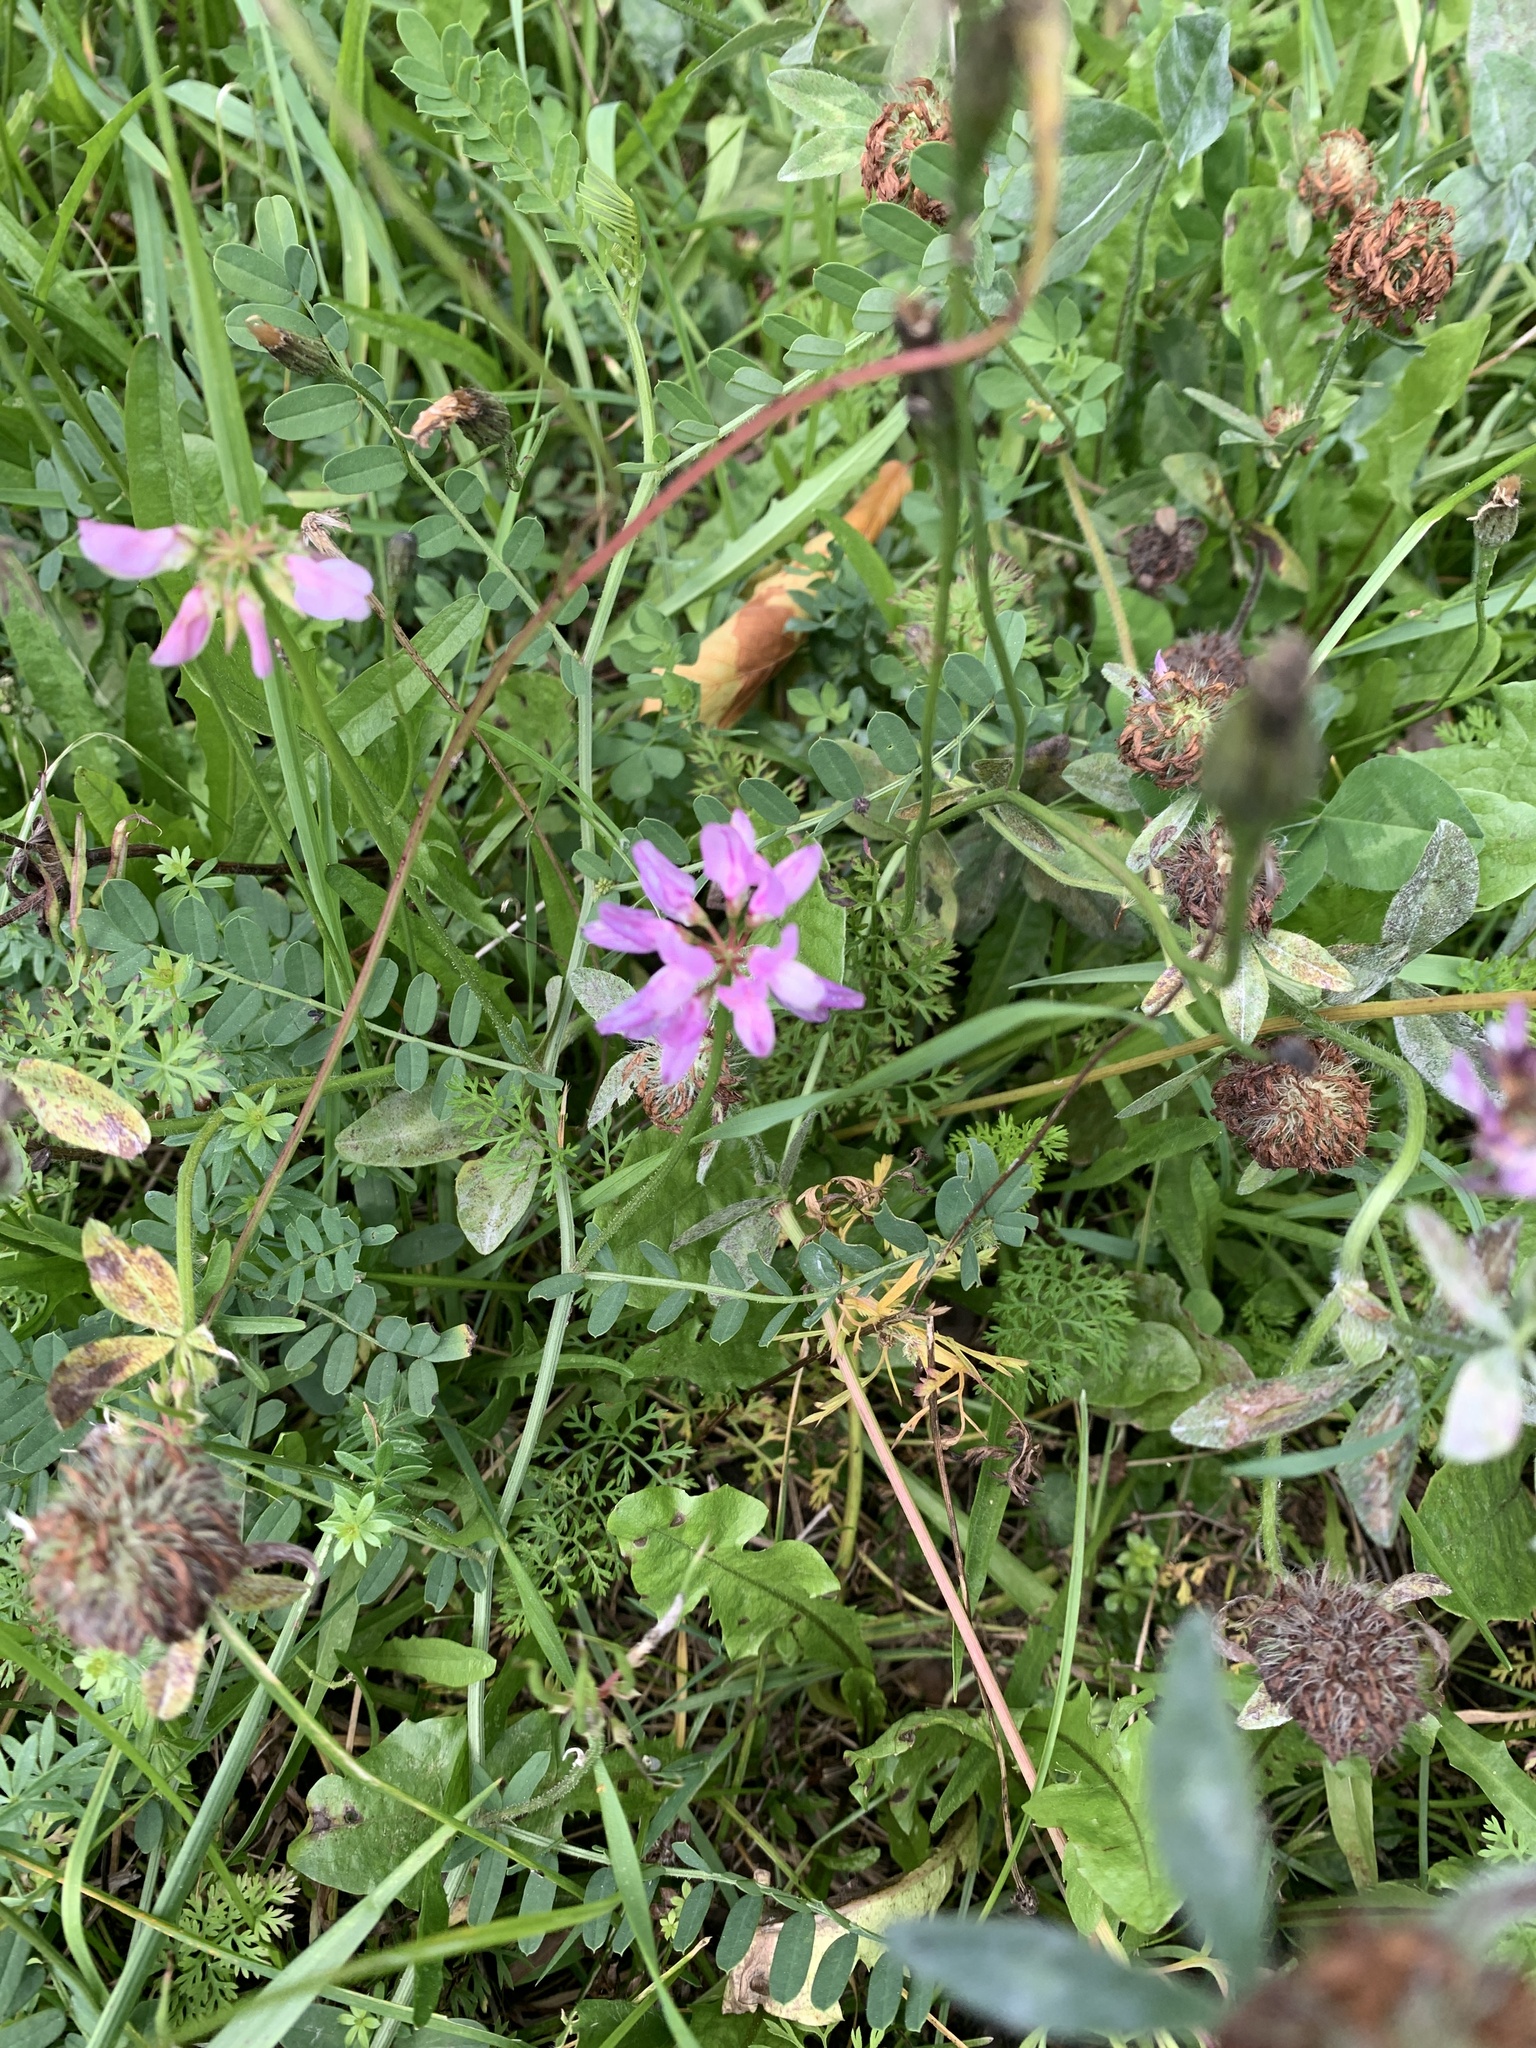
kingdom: Plantae
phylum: Tracheophyta
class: Magnoliopsida
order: Fabales
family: Fabaceae
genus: Coronilla
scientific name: Coronilla varia
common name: Crownvetch
